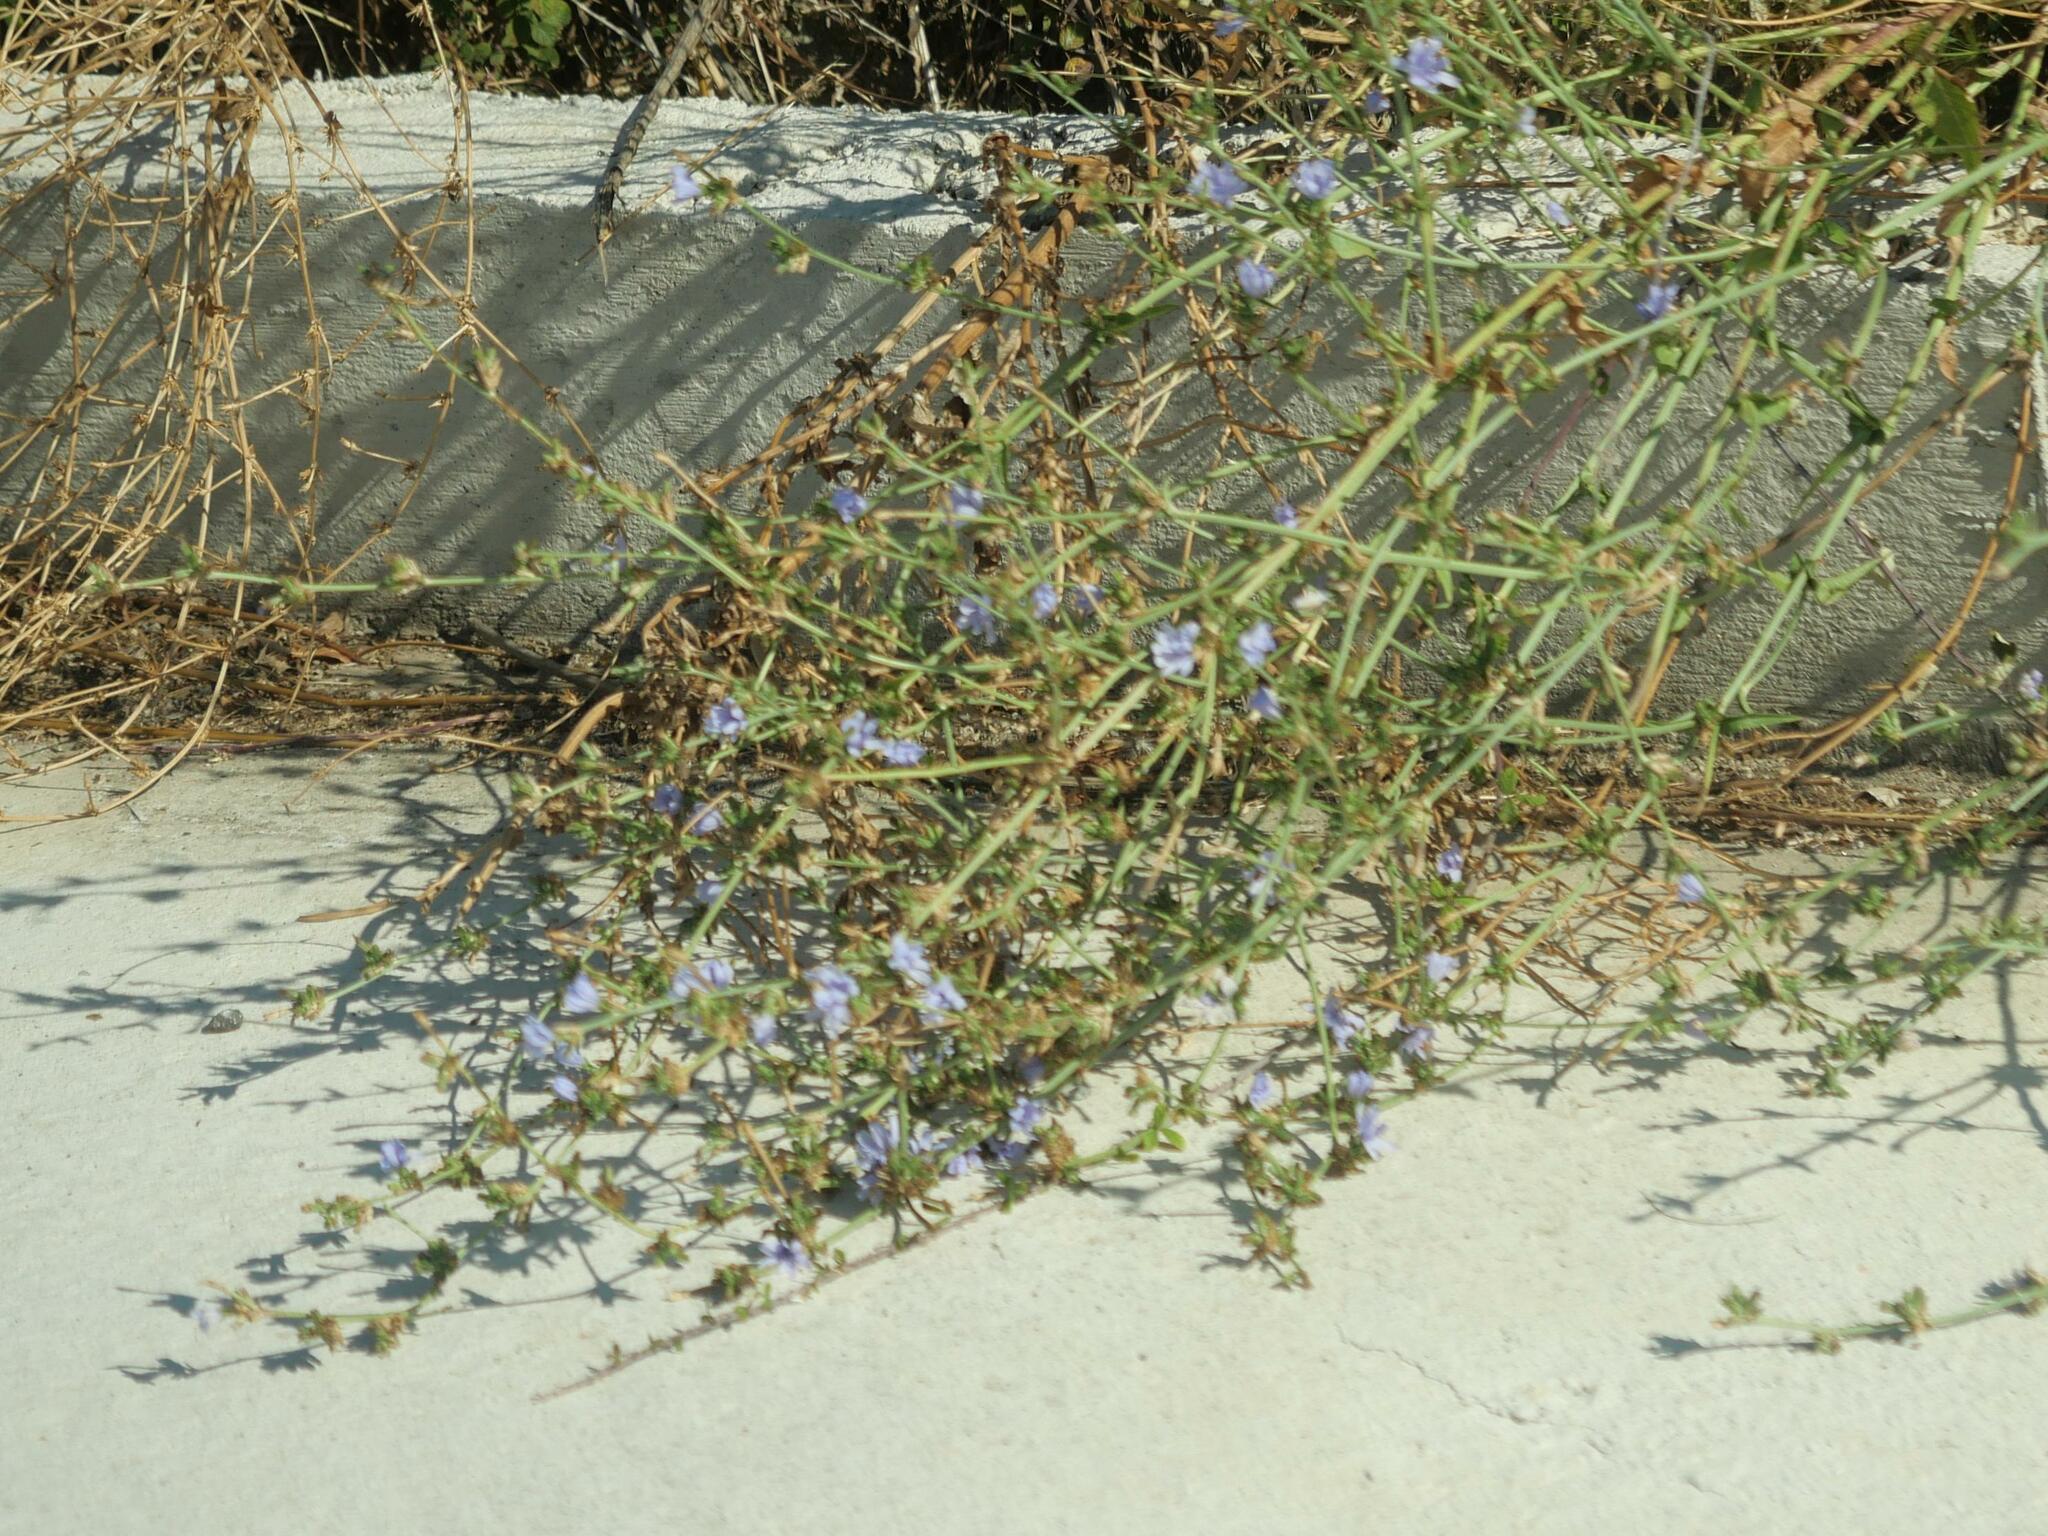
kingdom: Plantae
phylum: Tracheophyta
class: Magnoliopsida
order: Asterales
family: Asteraceae
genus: Cichorium
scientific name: Cichorium intybus
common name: Chicory
